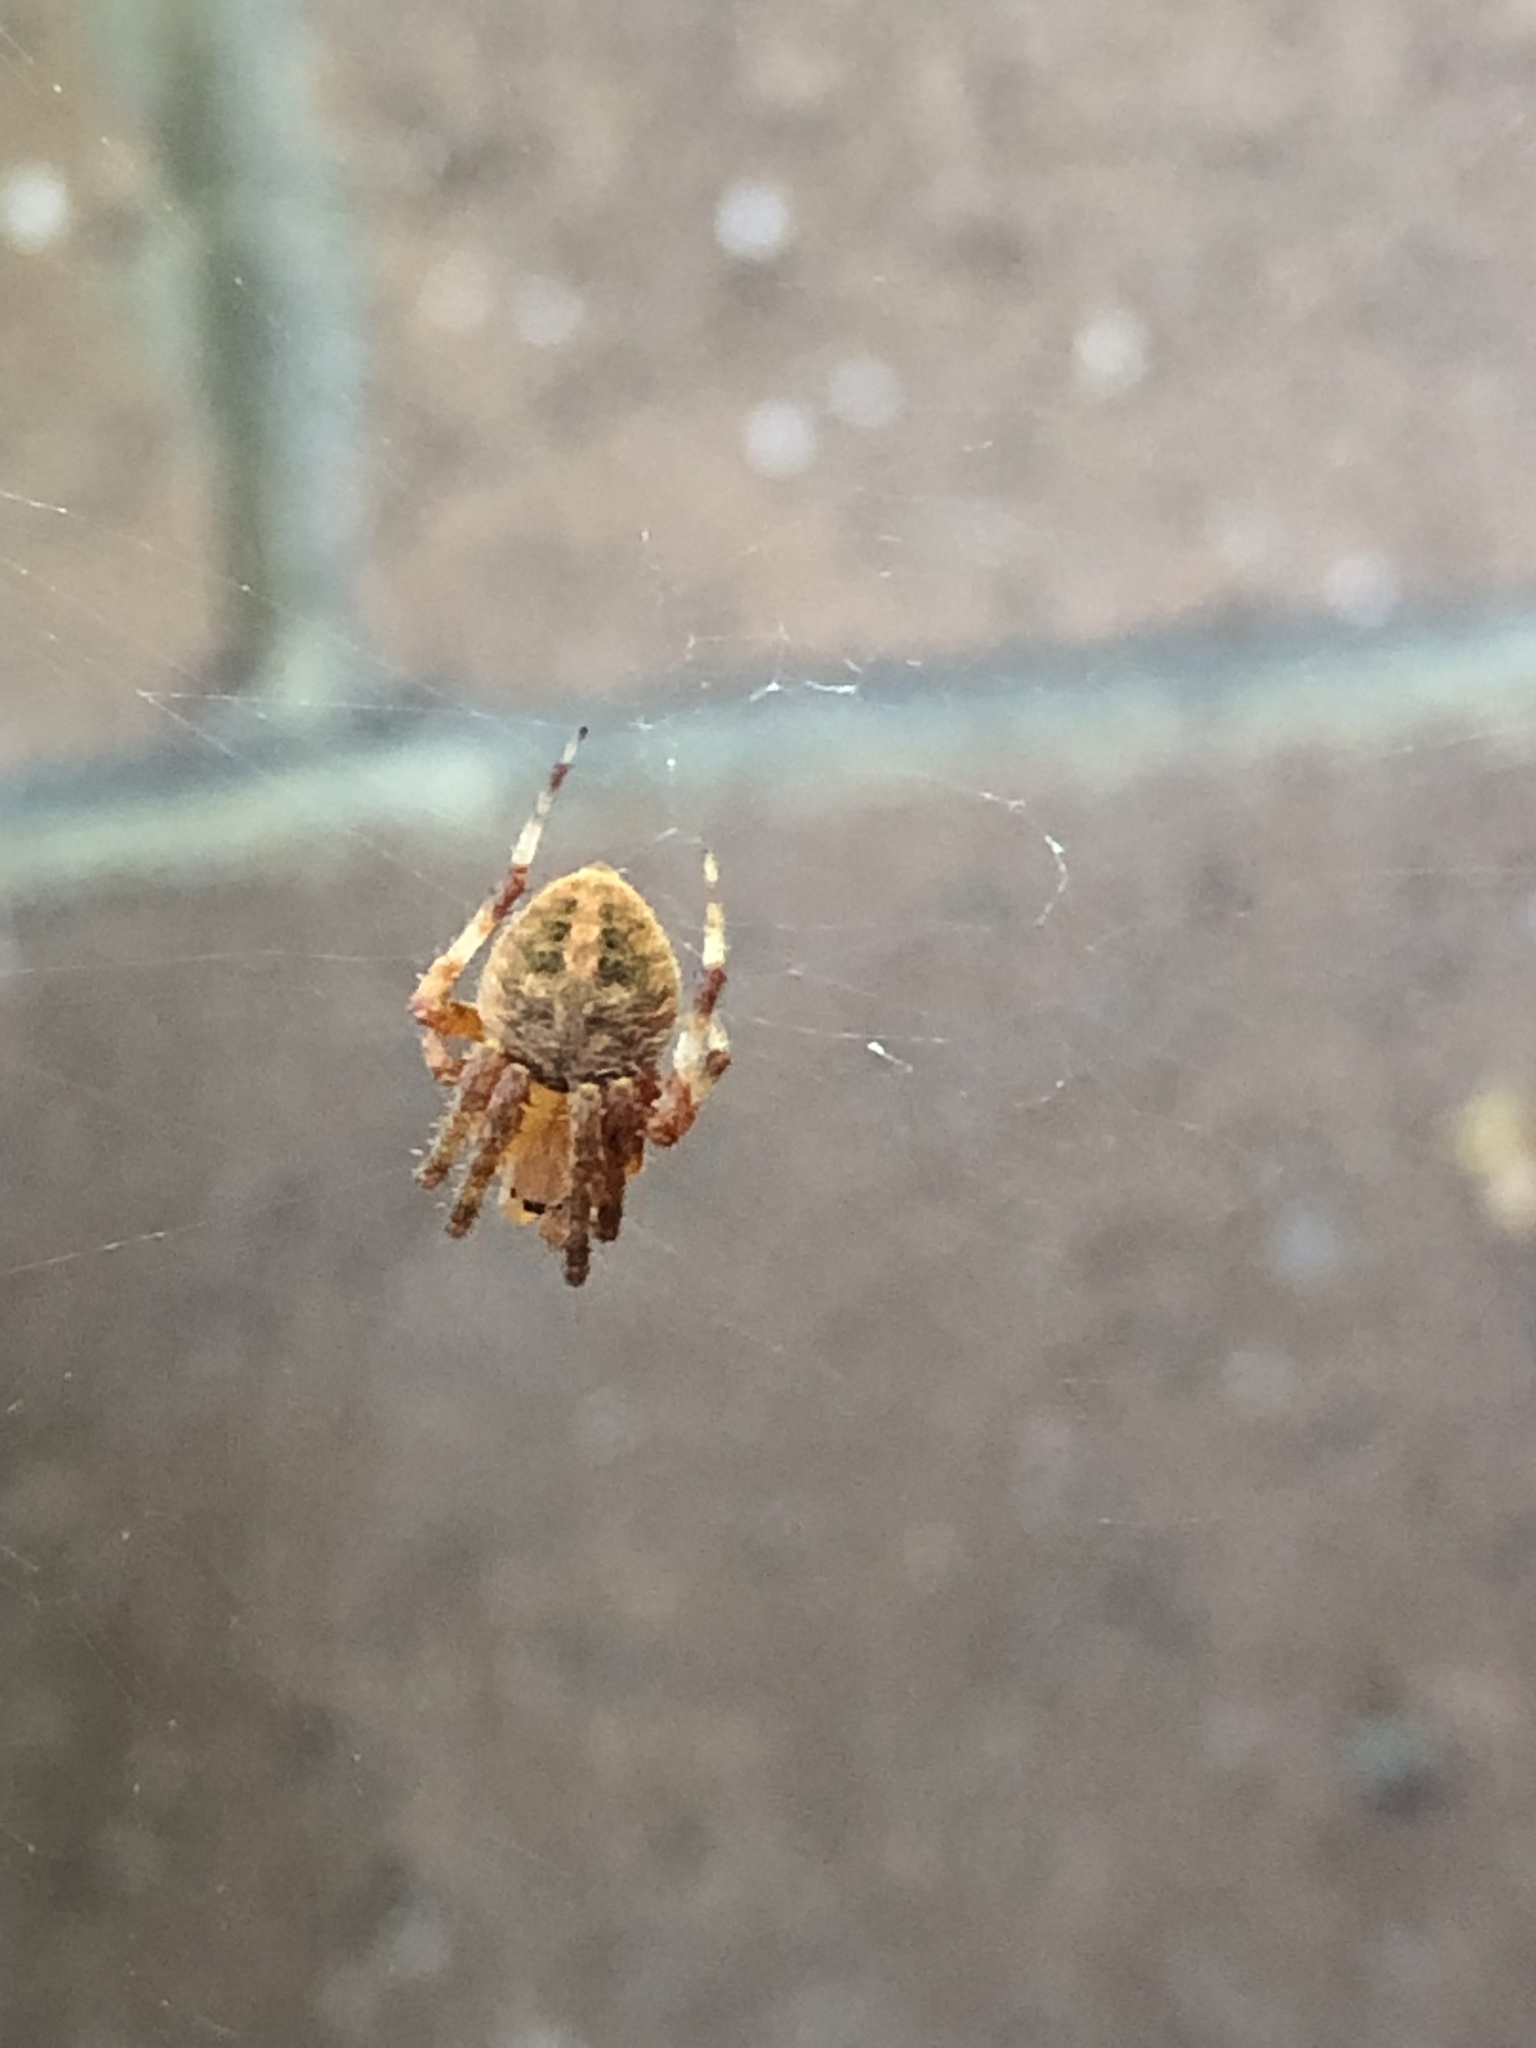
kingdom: Animalia
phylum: Arthropoda
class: Arachnida
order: Araneae
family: Araneidae
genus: Neoscona
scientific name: Neoscona crucifera
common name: Spotted orbweaver
